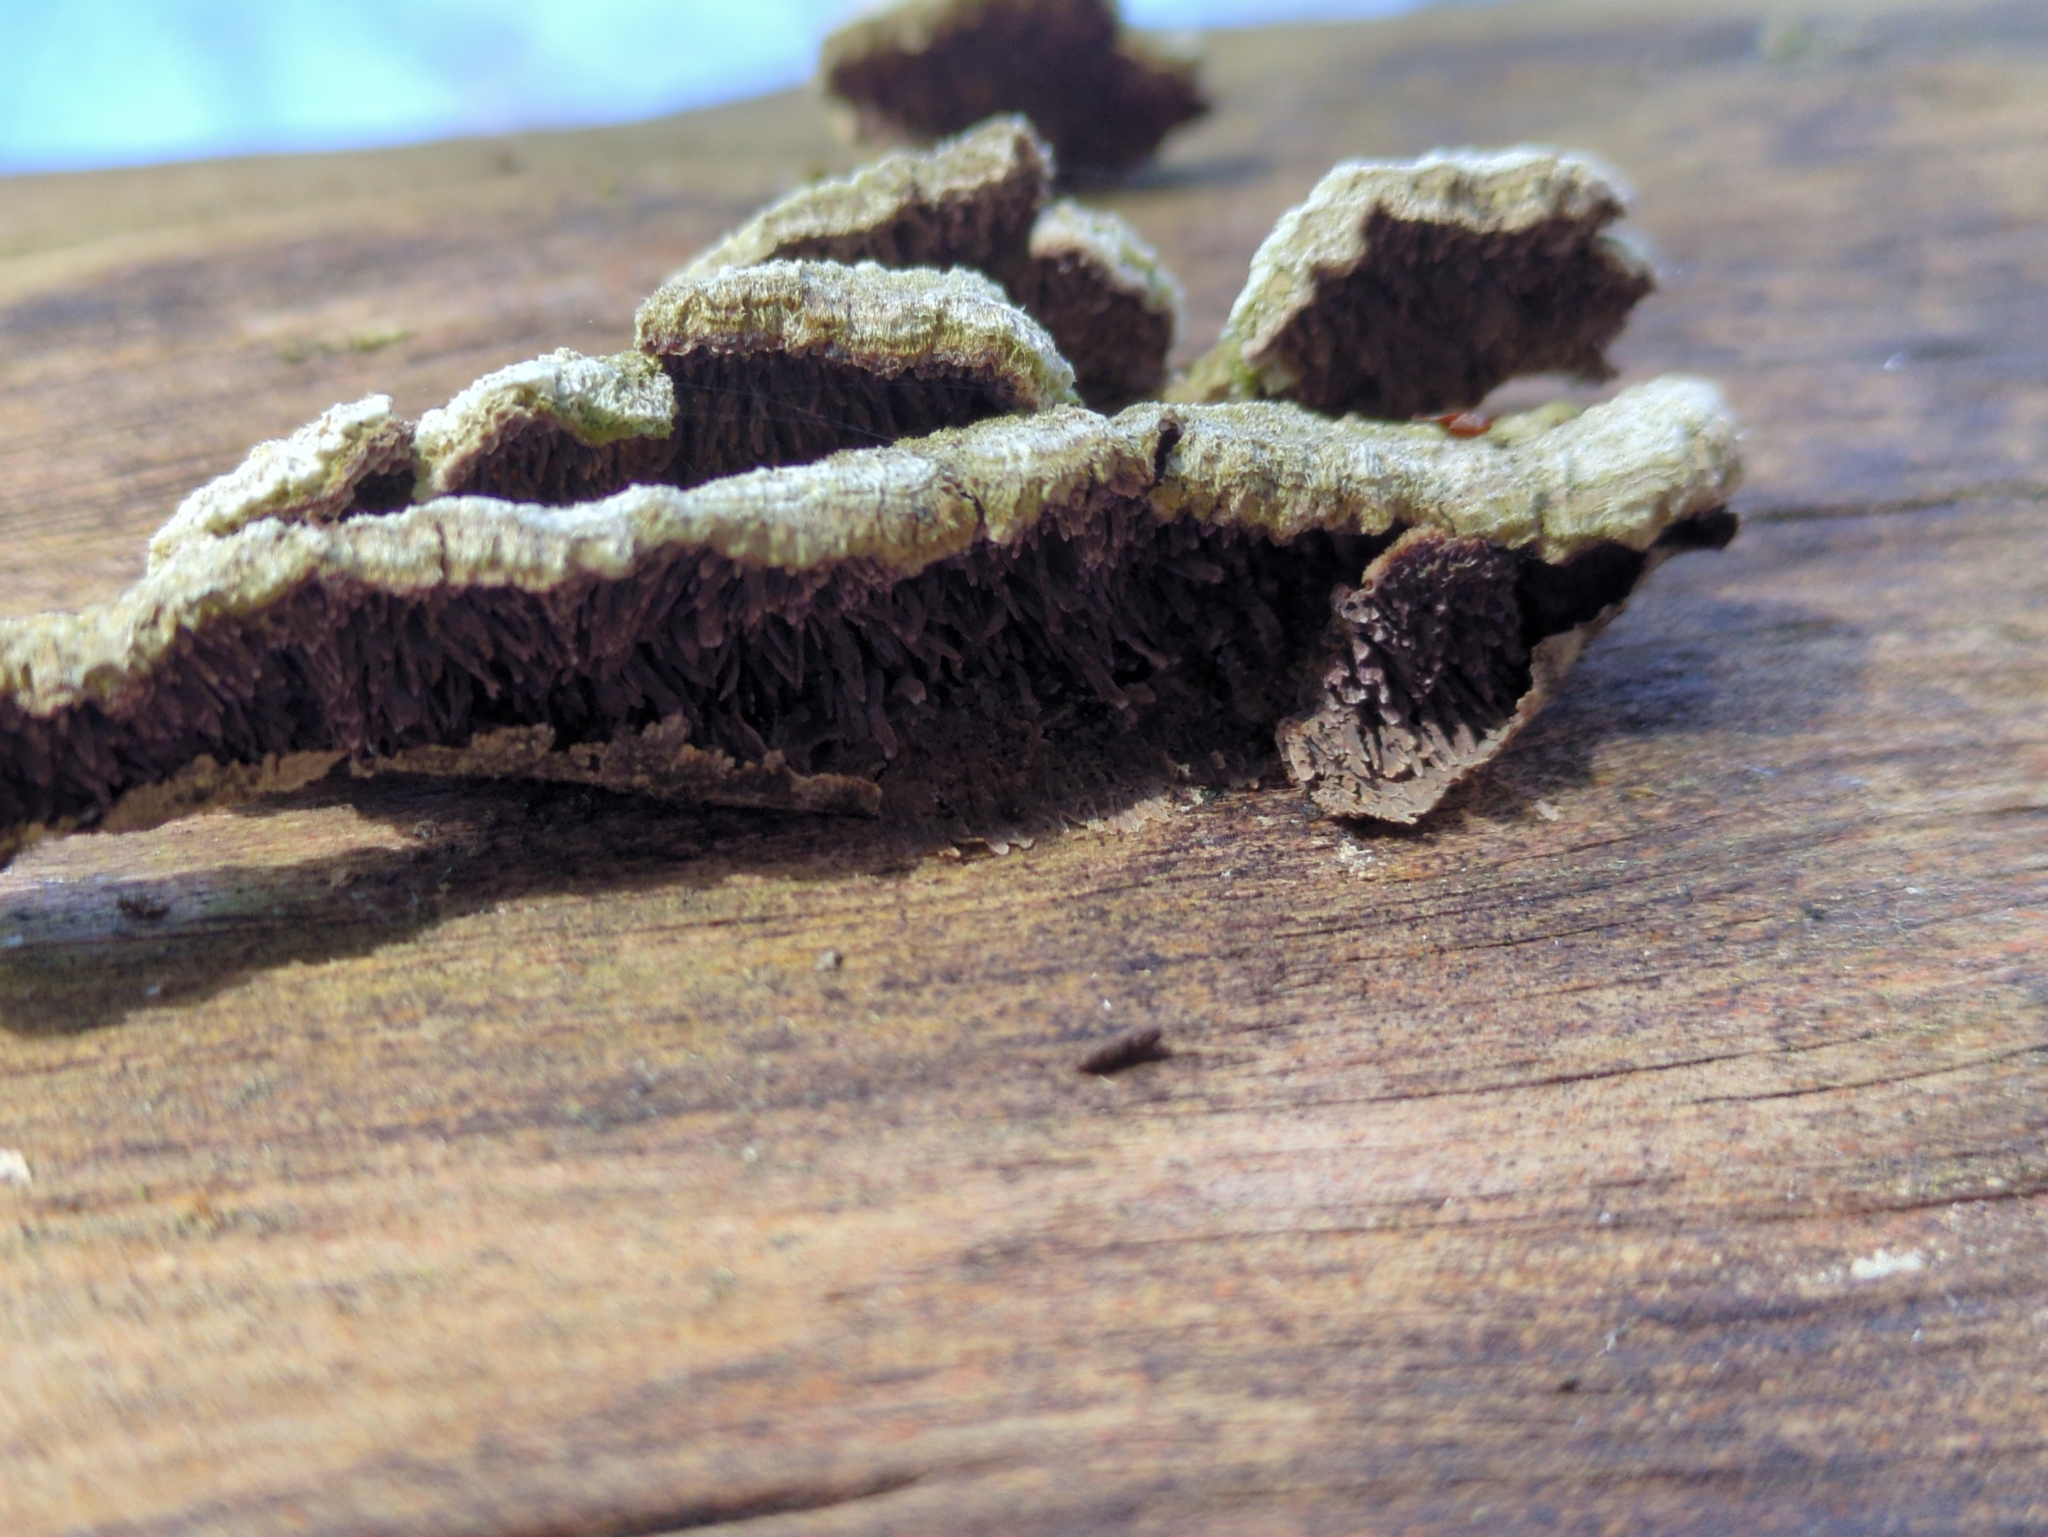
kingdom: Fungi
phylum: Basidiomycota
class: Agaricomycetes
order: Hymenochaetales
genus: Trichaptum
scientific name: Trichaptum fuscoviolaceum
